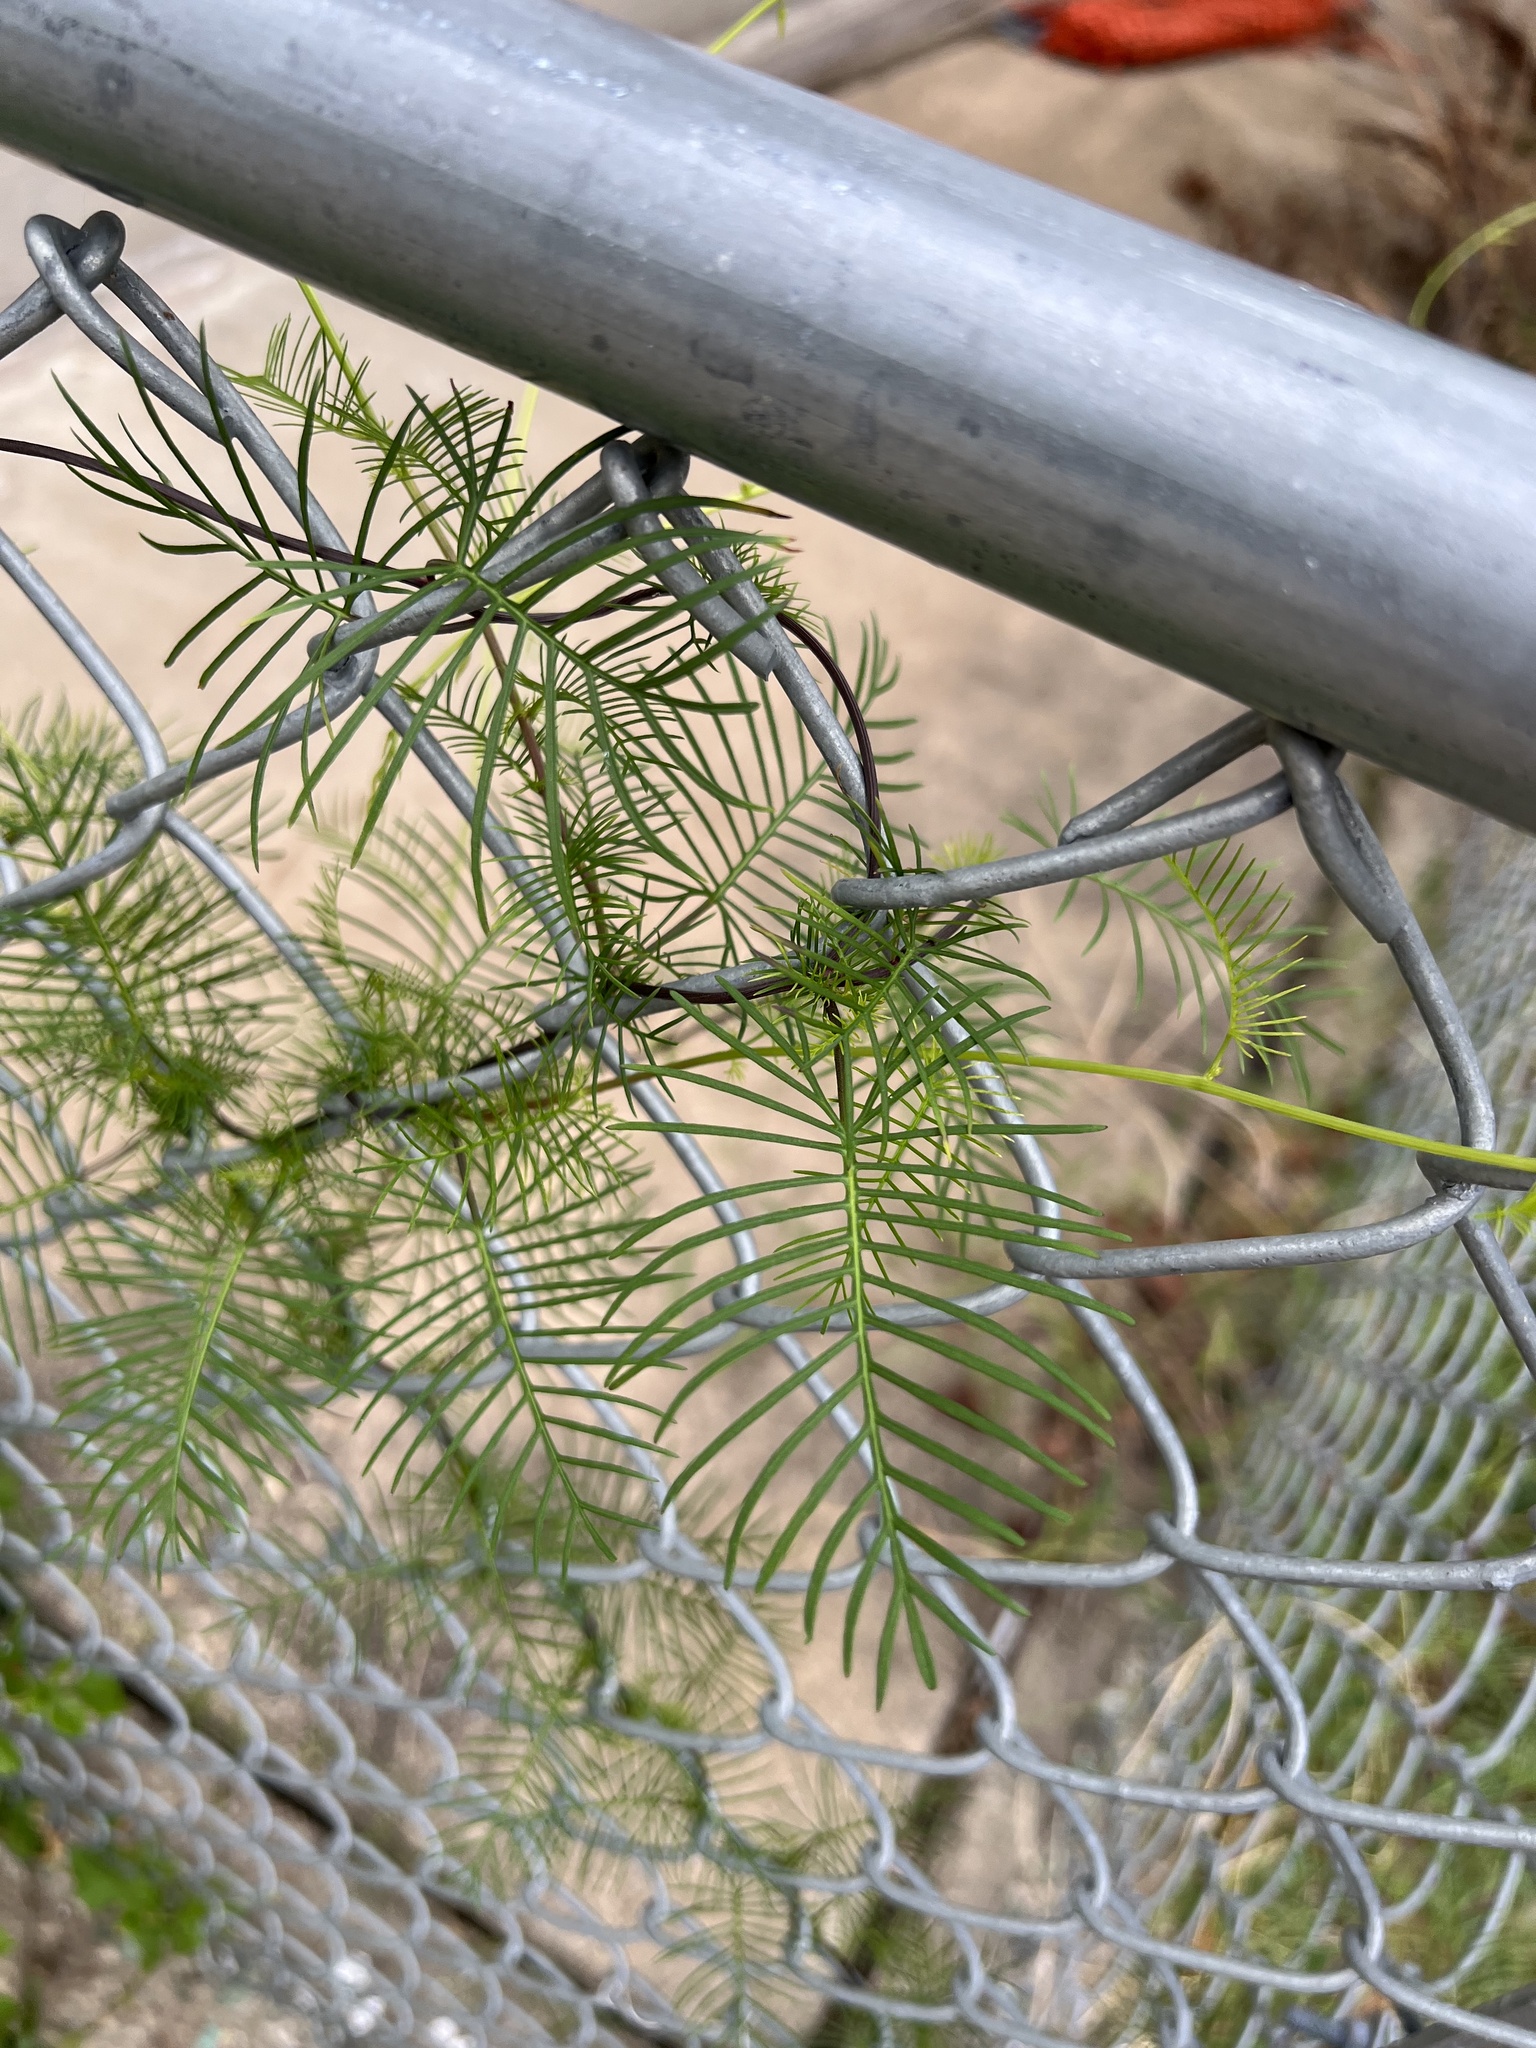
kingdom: Plantae
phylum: Tracheophyta
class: Magnoliopsida
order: Solanales
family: Convolvulaceae
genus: Ipomoea
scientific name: Ipomoea quamoclit
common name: Cypress vine
